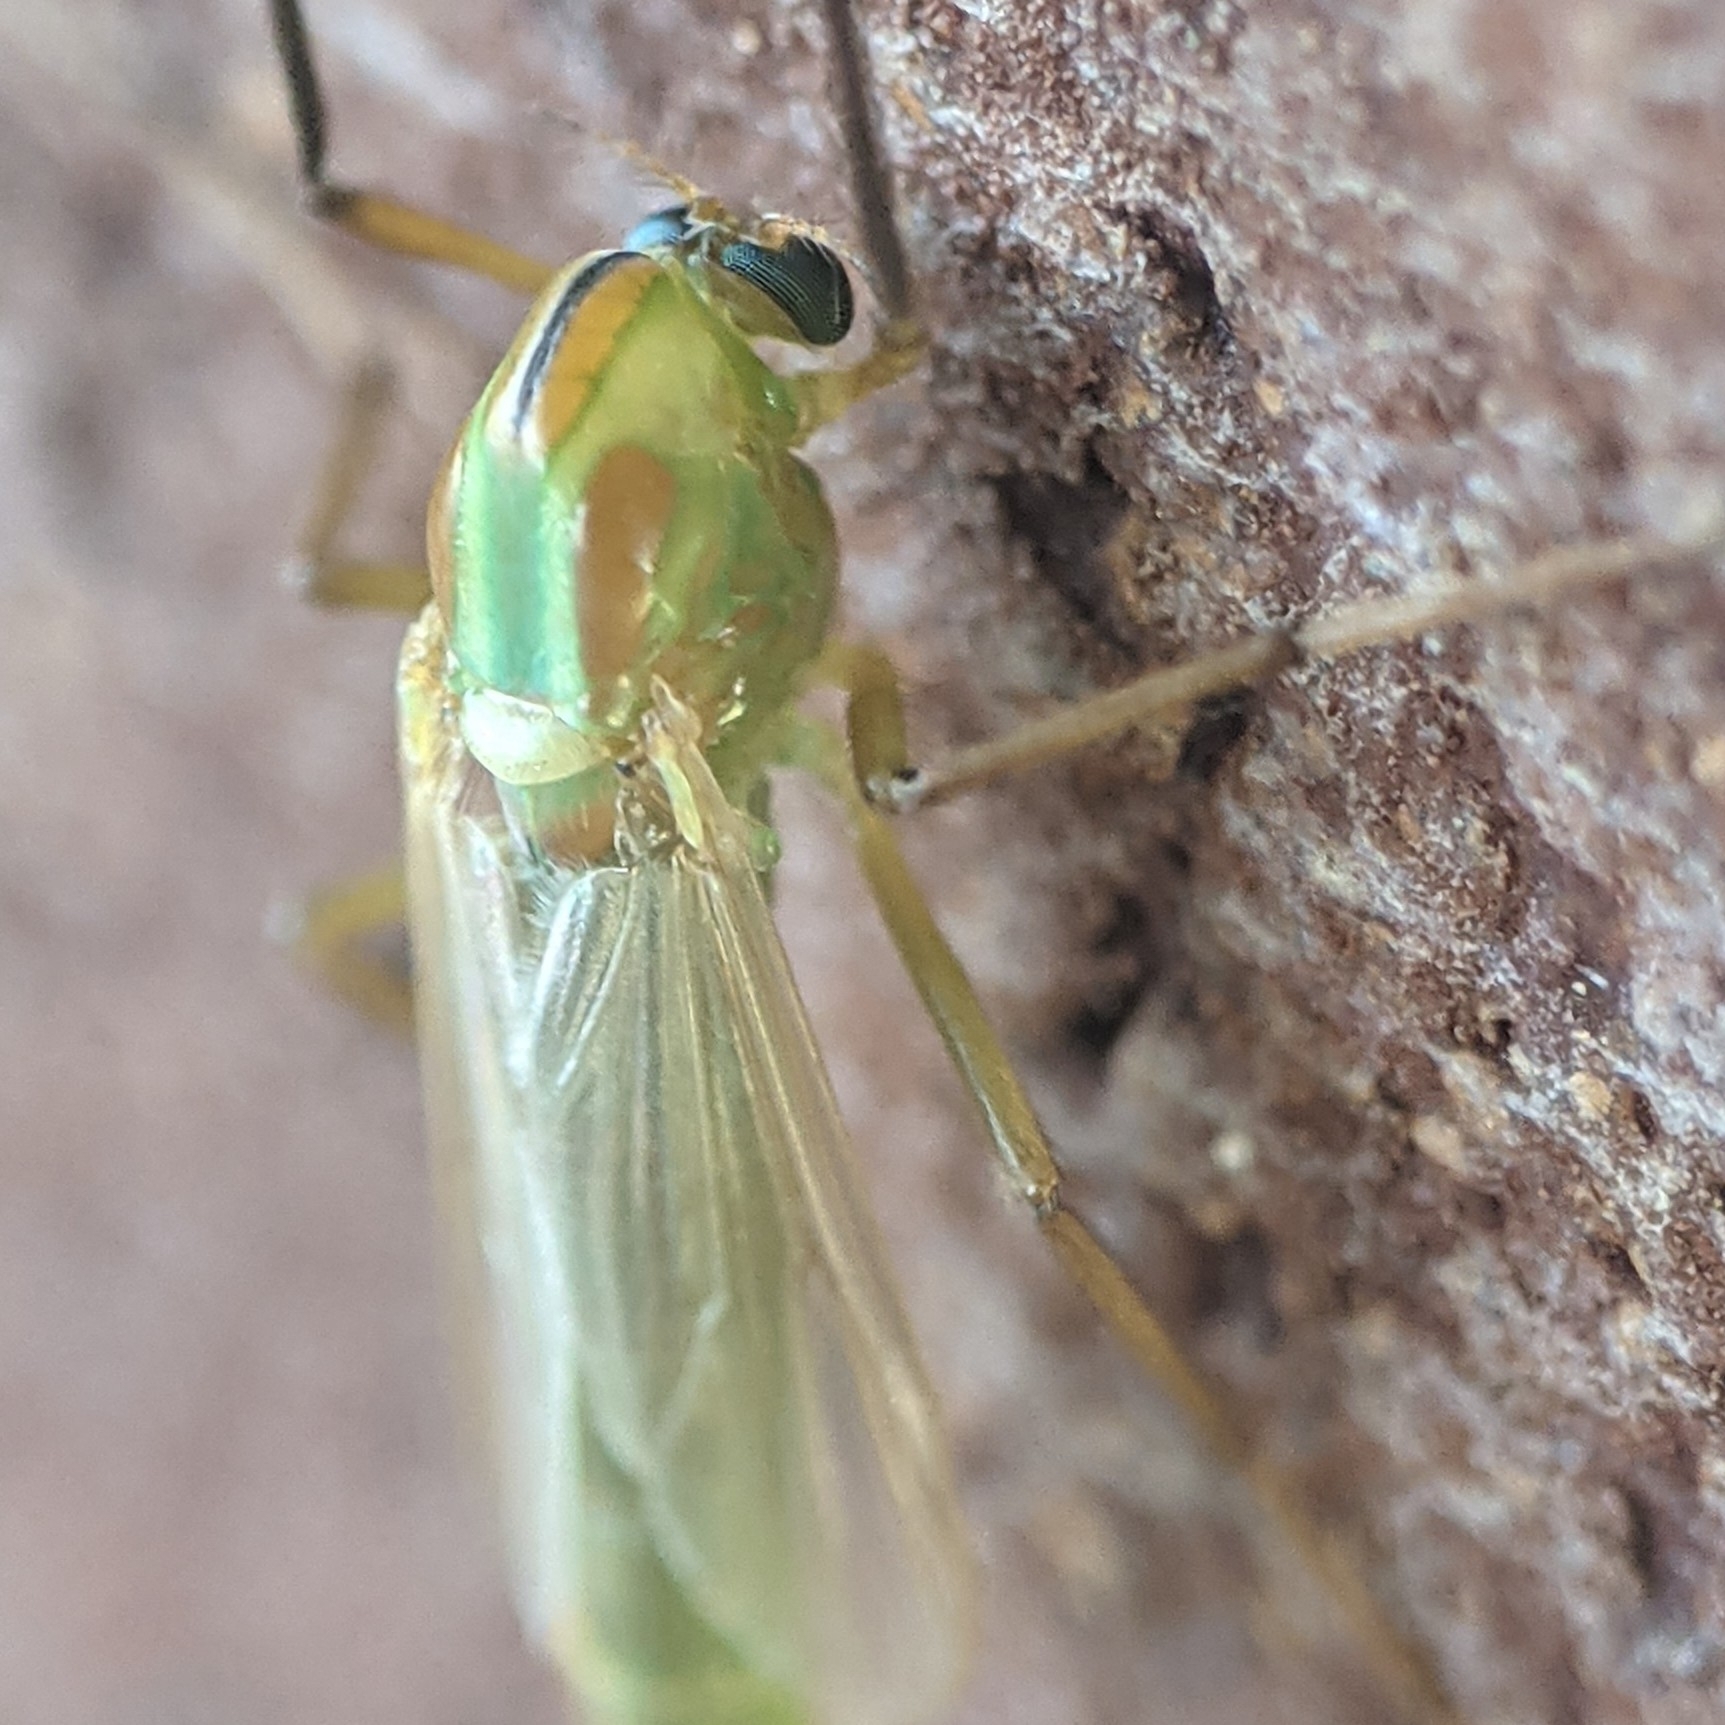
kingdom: Animalia
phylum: Arthropoda
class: Insecta
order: Diptera
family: Chironomidae
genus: Axarus
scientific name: Axarus
